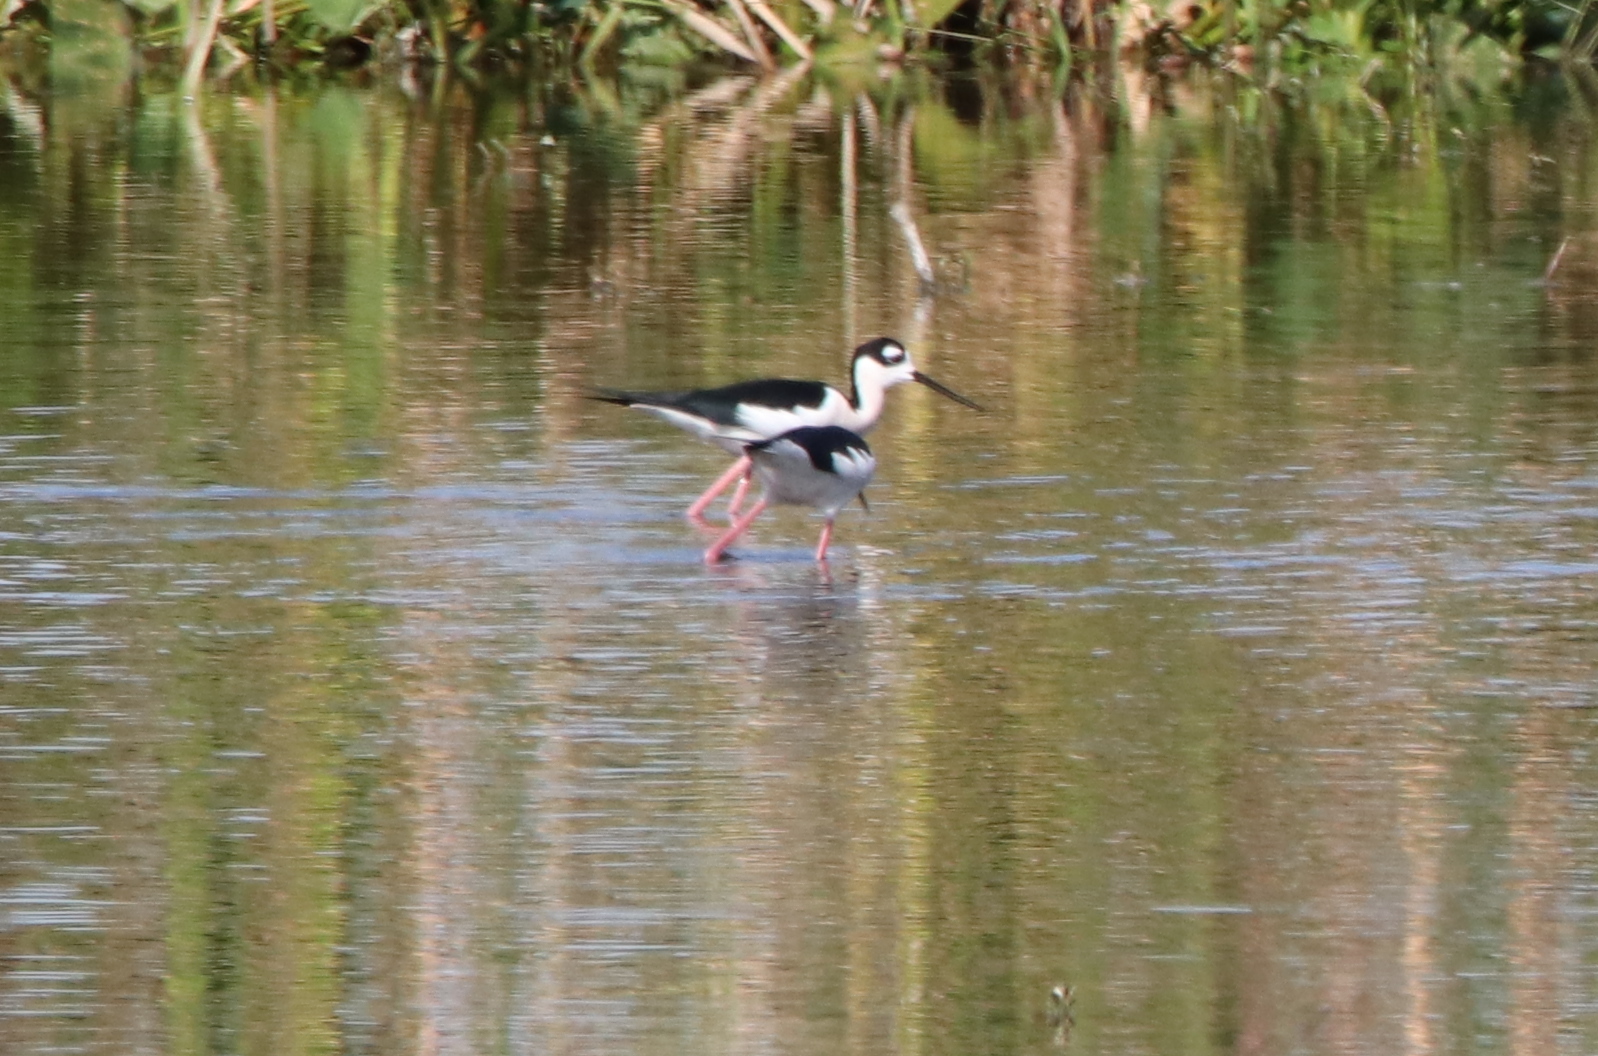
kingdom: Animalia
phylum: Chordata
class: Aves
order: Charadriiformes
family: Recurvirostridae
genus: Himantopus
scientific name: Himantopus mexicanus
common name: Black-necked stilt
